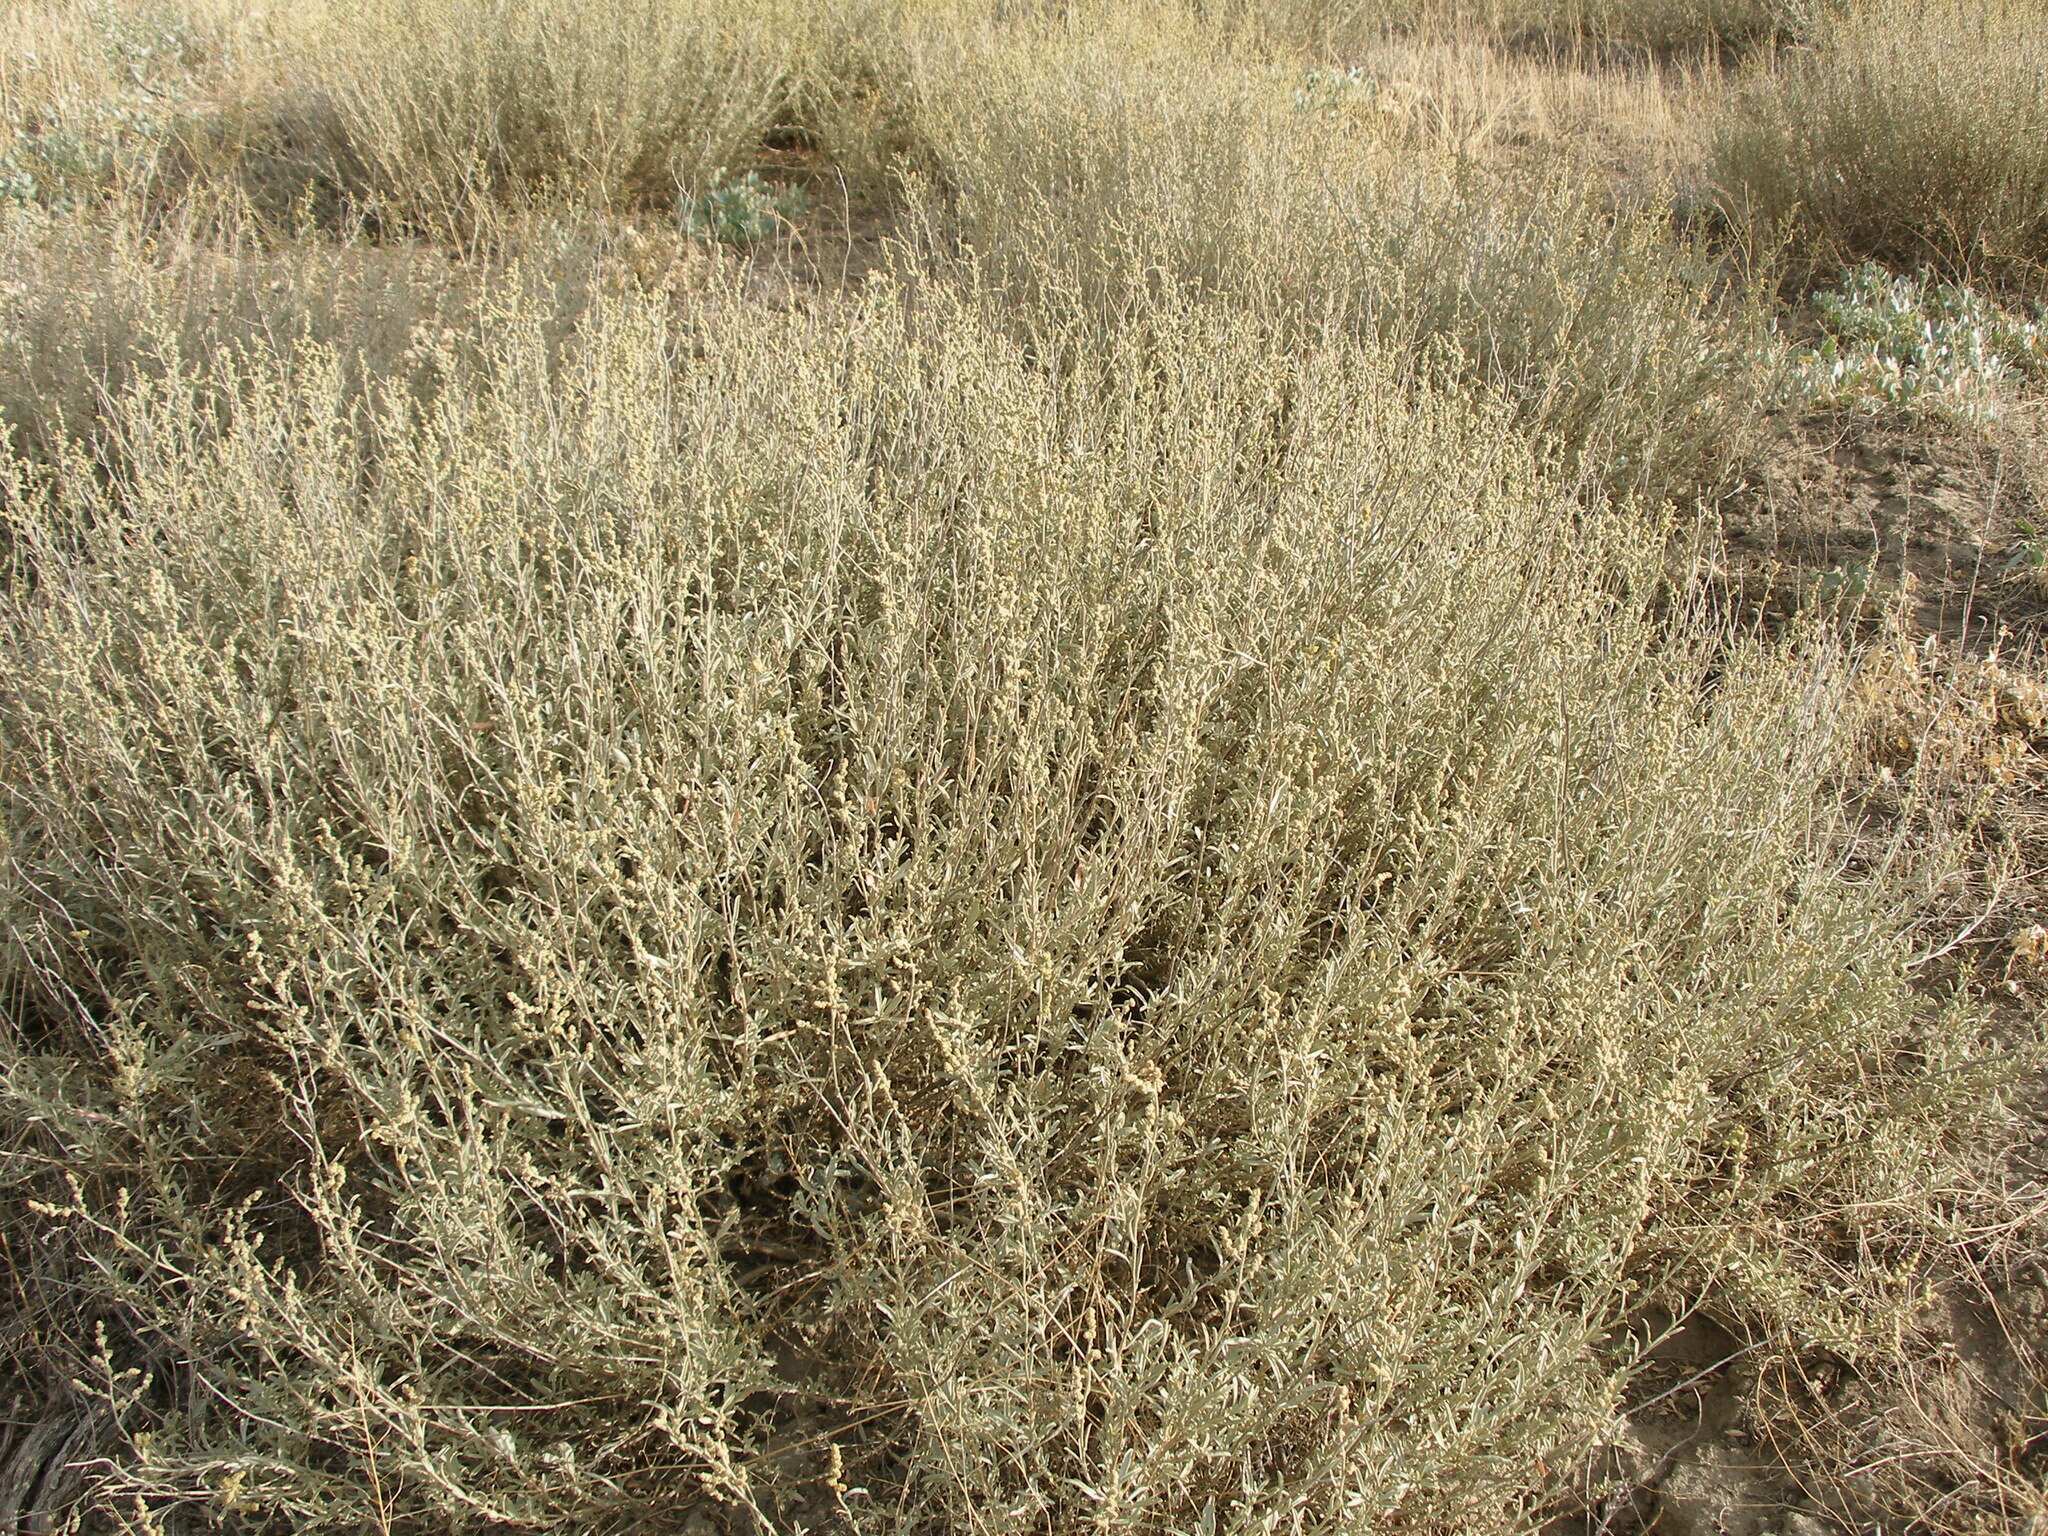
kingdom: Plantae
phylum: Tracheophyta
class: Magnoliopsida
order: Caryophyllales
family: Amaranthaceae
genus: Atriplex
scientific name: Atriplex cana
